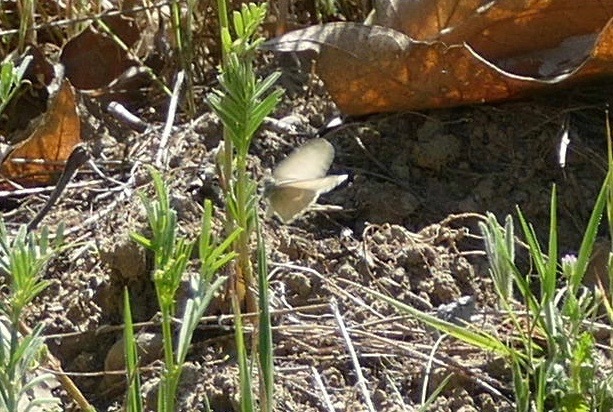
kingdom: Animalia
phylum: Arthropoda
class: Insecta
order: Lepidoptera
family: Nymphalidae
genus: Coenonympha
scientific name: Coenonympha california
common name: Common ringlet
